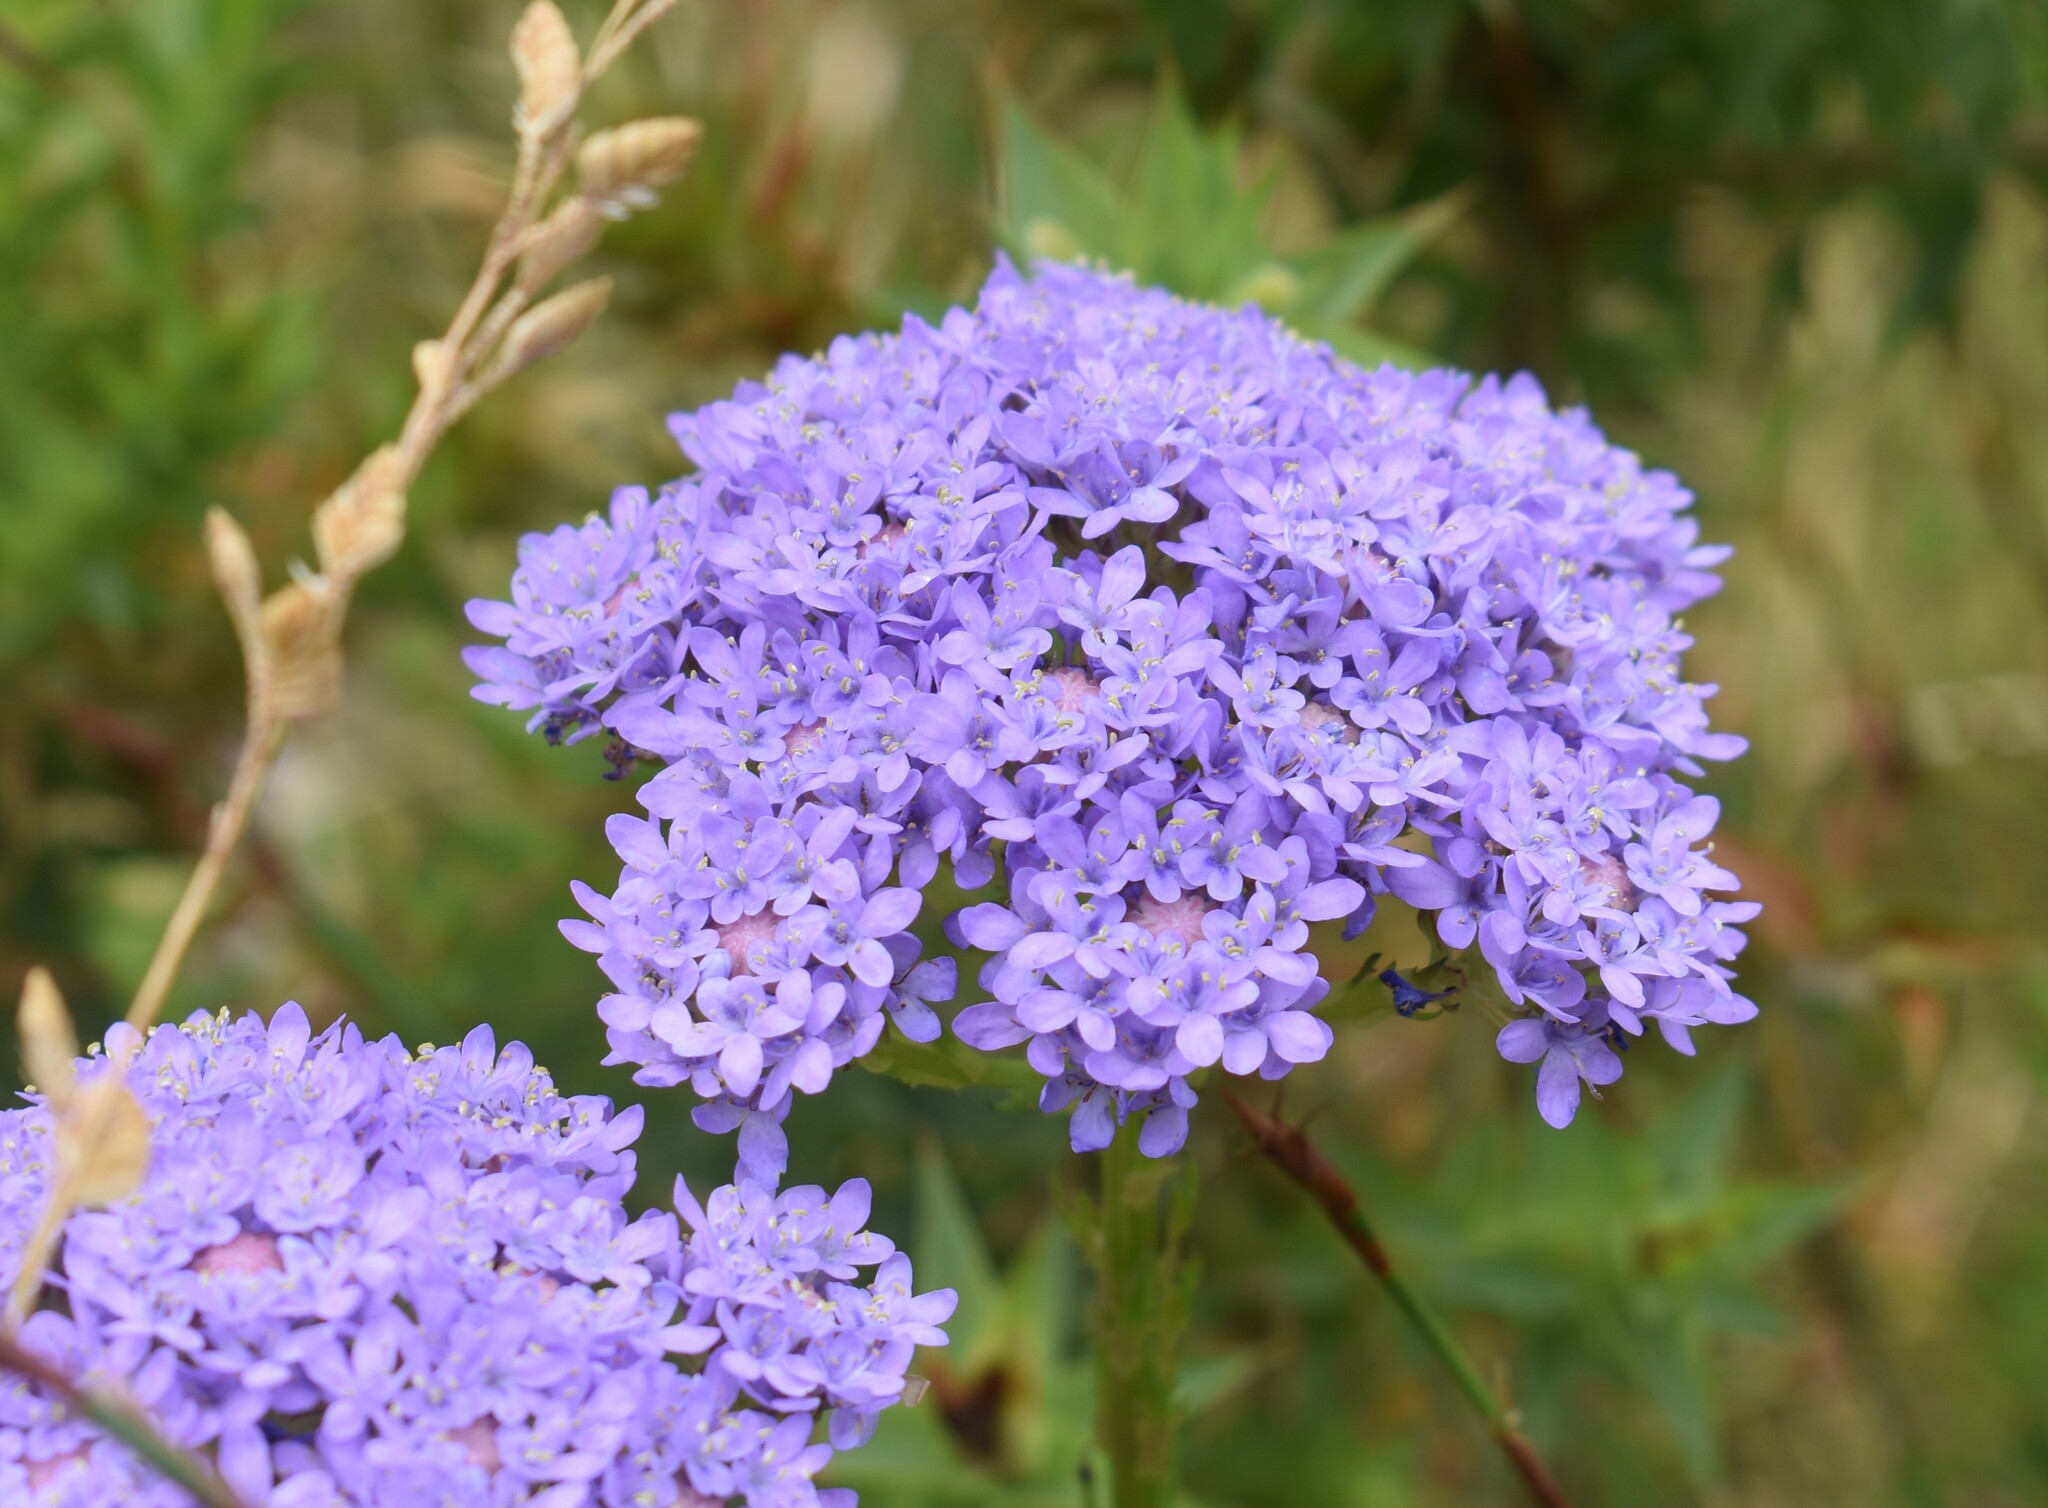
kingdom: Plantae
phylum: Tracheophyta
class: Magnoliopsida
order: Lamiales
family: Scrophulariaceae
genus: Pseudoselago
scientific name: Pseudoselago spuria
